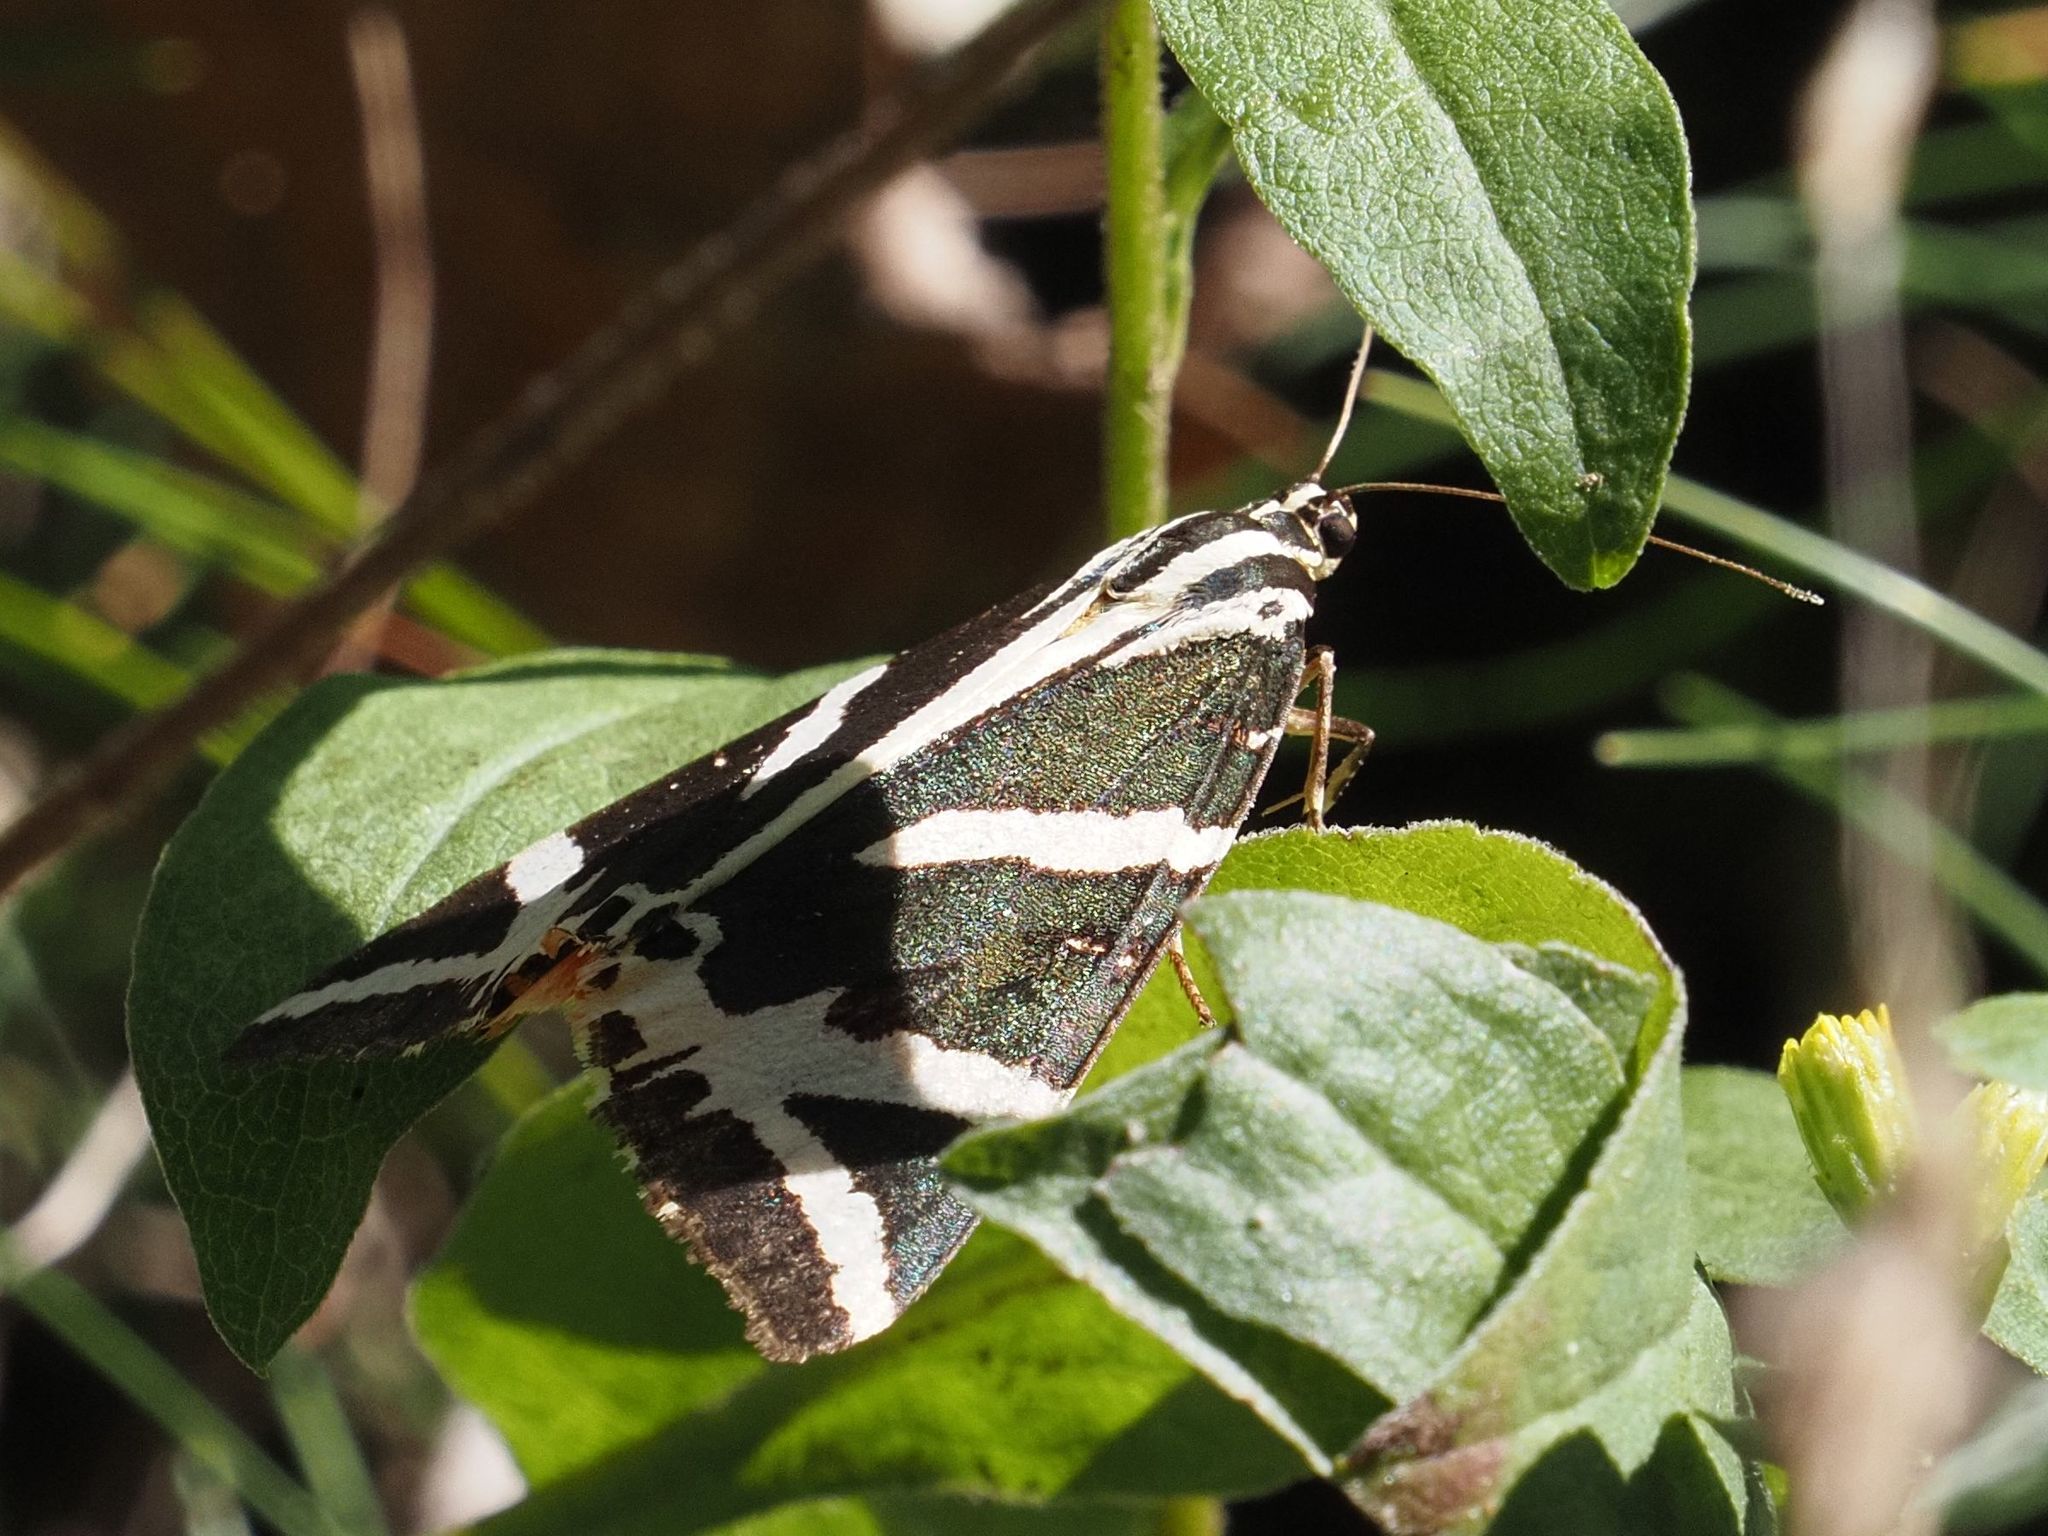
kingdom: Animalia
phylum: Arthropoda
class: Insecta
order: Lepidoptera
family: Erebidae
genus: Euplagia
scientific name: Euplagia quadripunctaria
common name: Jersey tiger
